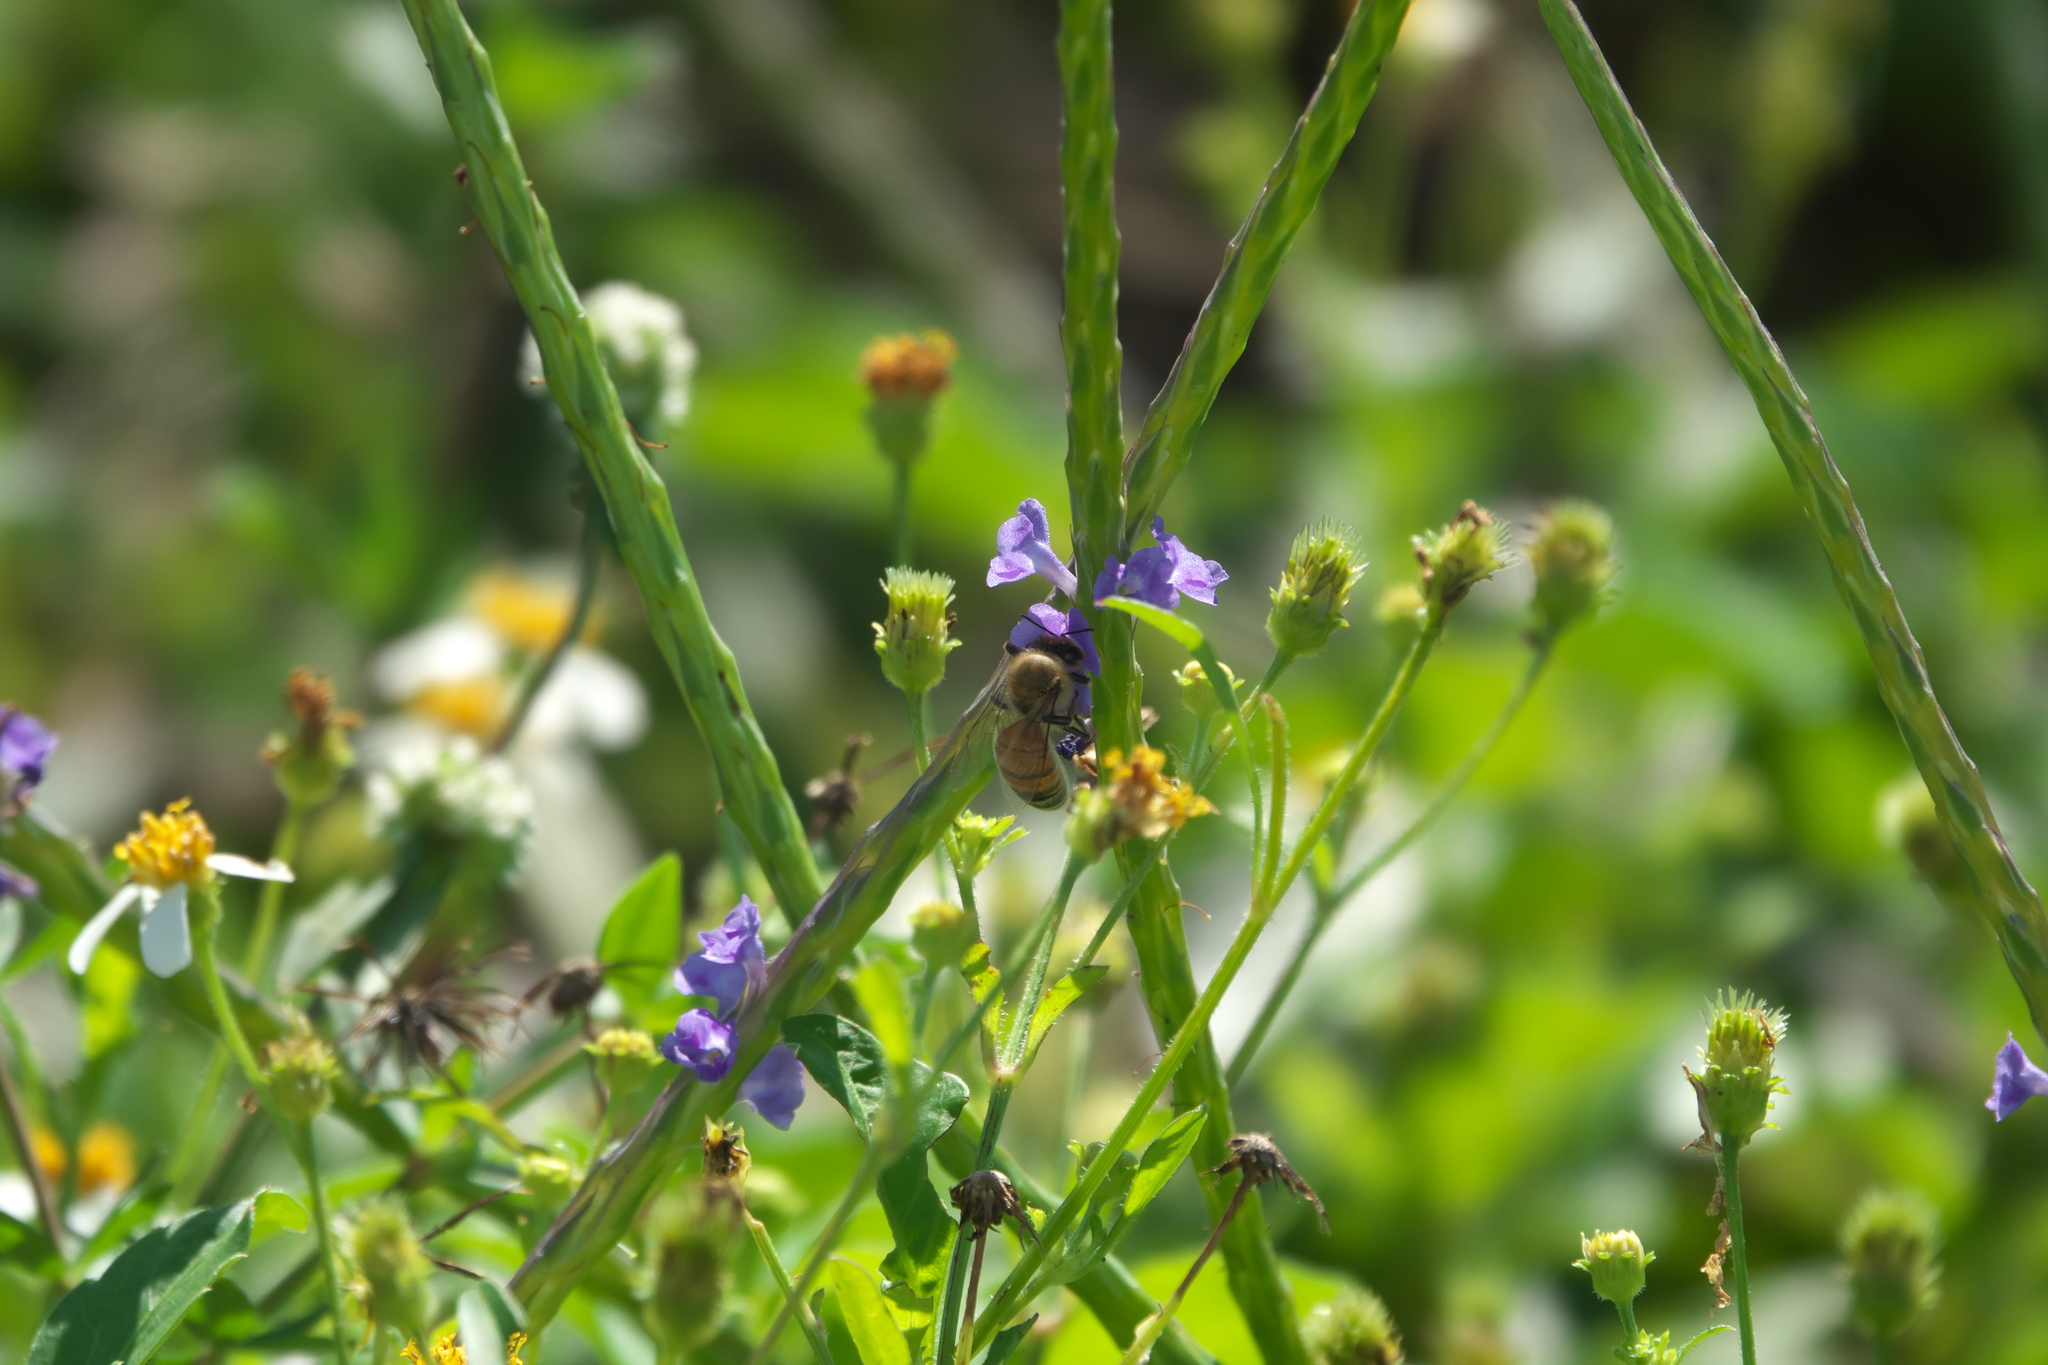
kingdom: Plantae
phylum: Tracheophyta
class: Magnoliopsida
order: Lamiales
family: Verbenaceae
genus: Stachytarpheta
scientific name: Stachytarpheta jamaicensis
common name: Light-blue snakeweed
